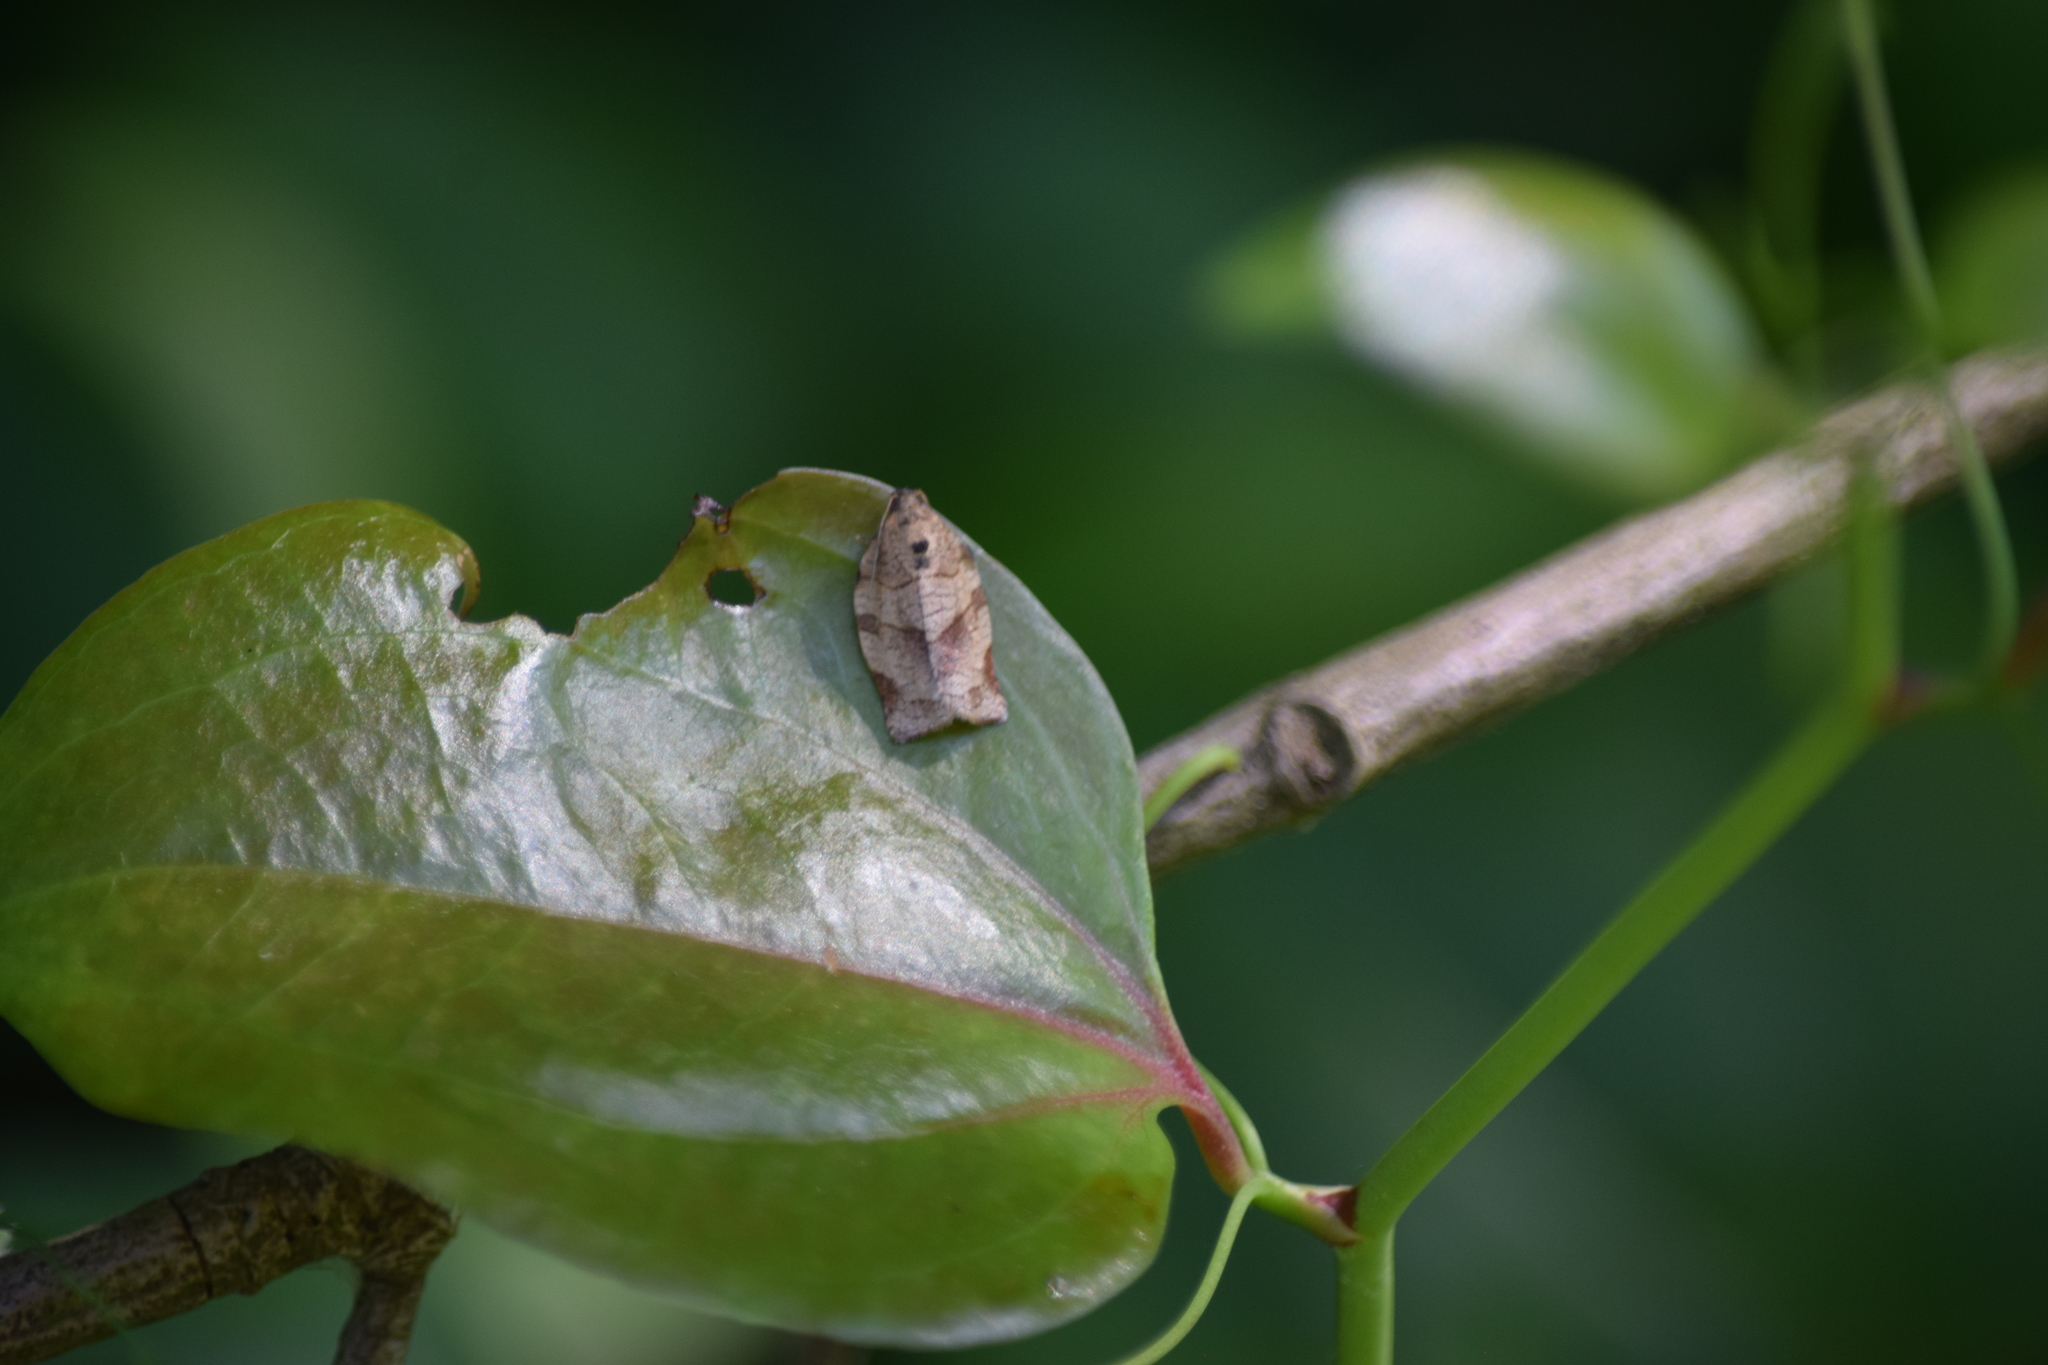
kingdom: Animalia
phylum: Arthropoda
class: Insecta
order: Lepidoptera
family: Tortricidae
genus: Choristoneura
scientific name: Choristoneura rosaceana
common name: Oblique-banded leafroller moth
